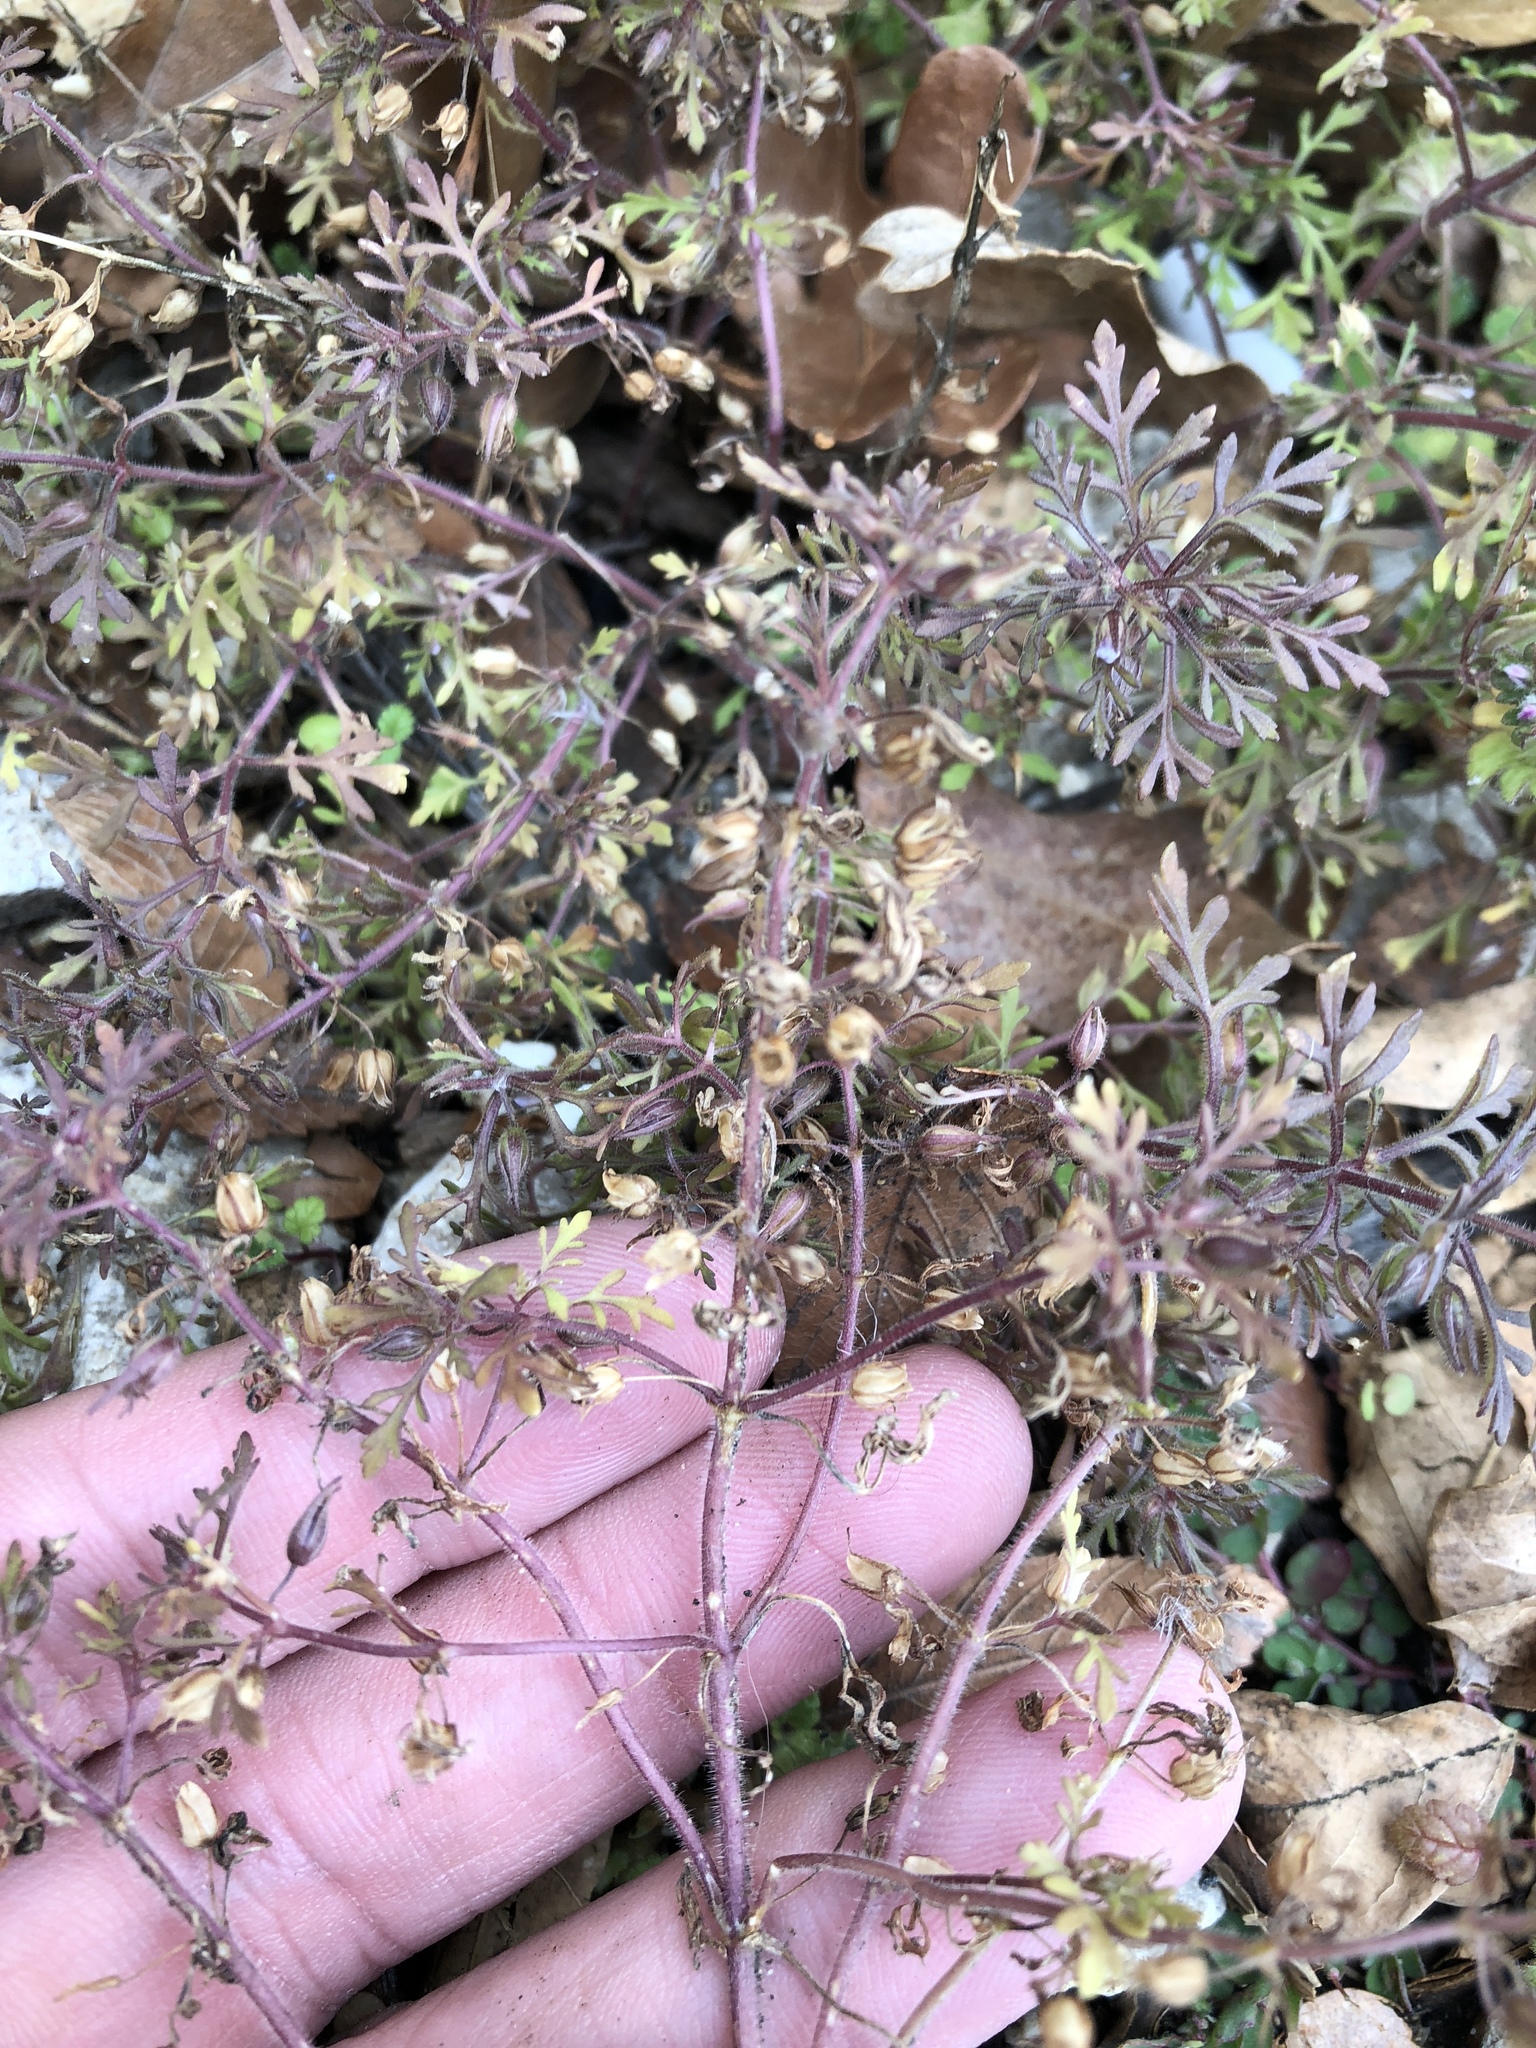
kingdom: Plantae
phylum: Tracheophyta
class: Magnoliopsida
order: Lamiales
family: Plantaginaceae
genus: Leucospora
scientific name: Leucospora multifida
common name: Narrow-leaf paleseed
